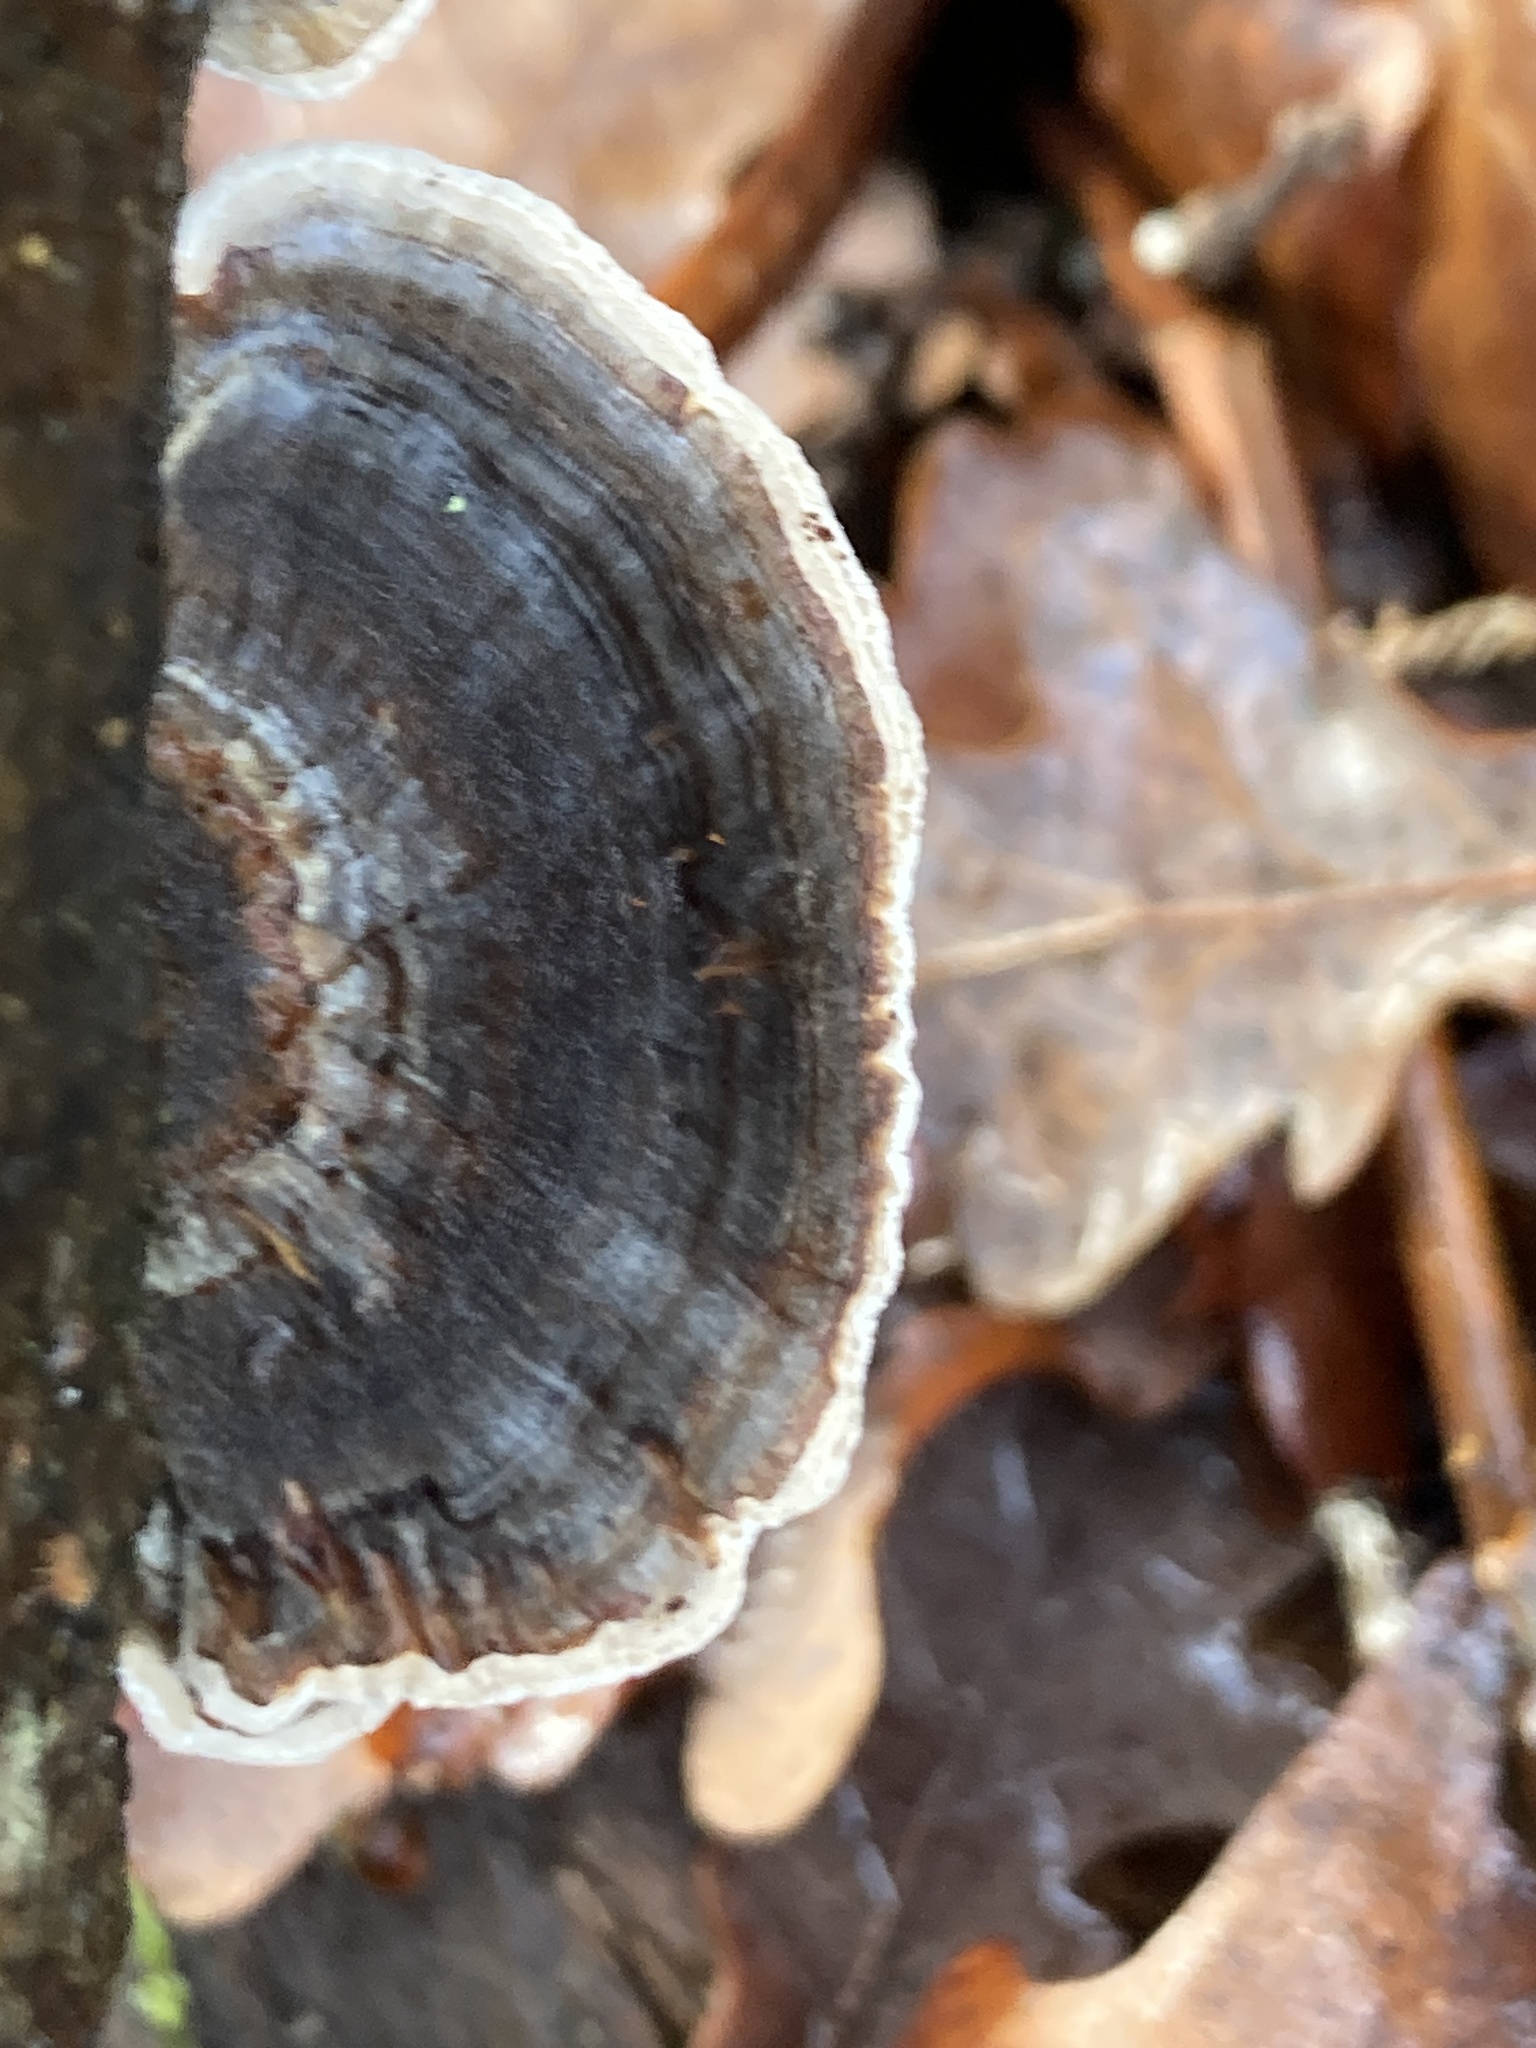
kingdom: Fungi
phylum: Basidiomycota
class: Agaricomycetes
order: Polyporales
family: Polyporaceae
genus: Trametes
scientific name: Trametes versicolor
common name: Turkeytail
